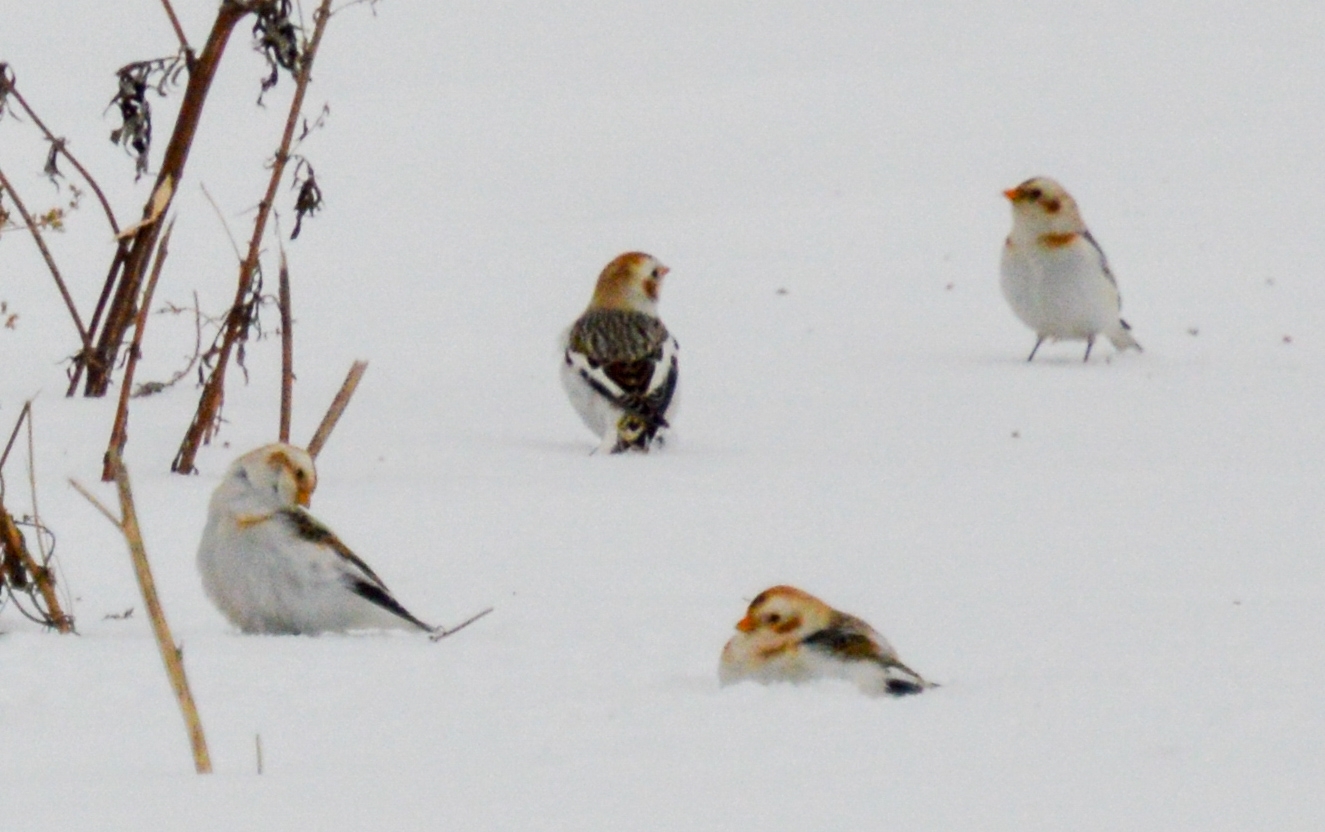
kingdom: Animalia
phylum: Chordata
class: Aves
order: Passeriformes
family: Calcariidae
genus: Plectrophenax
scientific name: Plectrophenax nivalis
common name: Snow bunting
